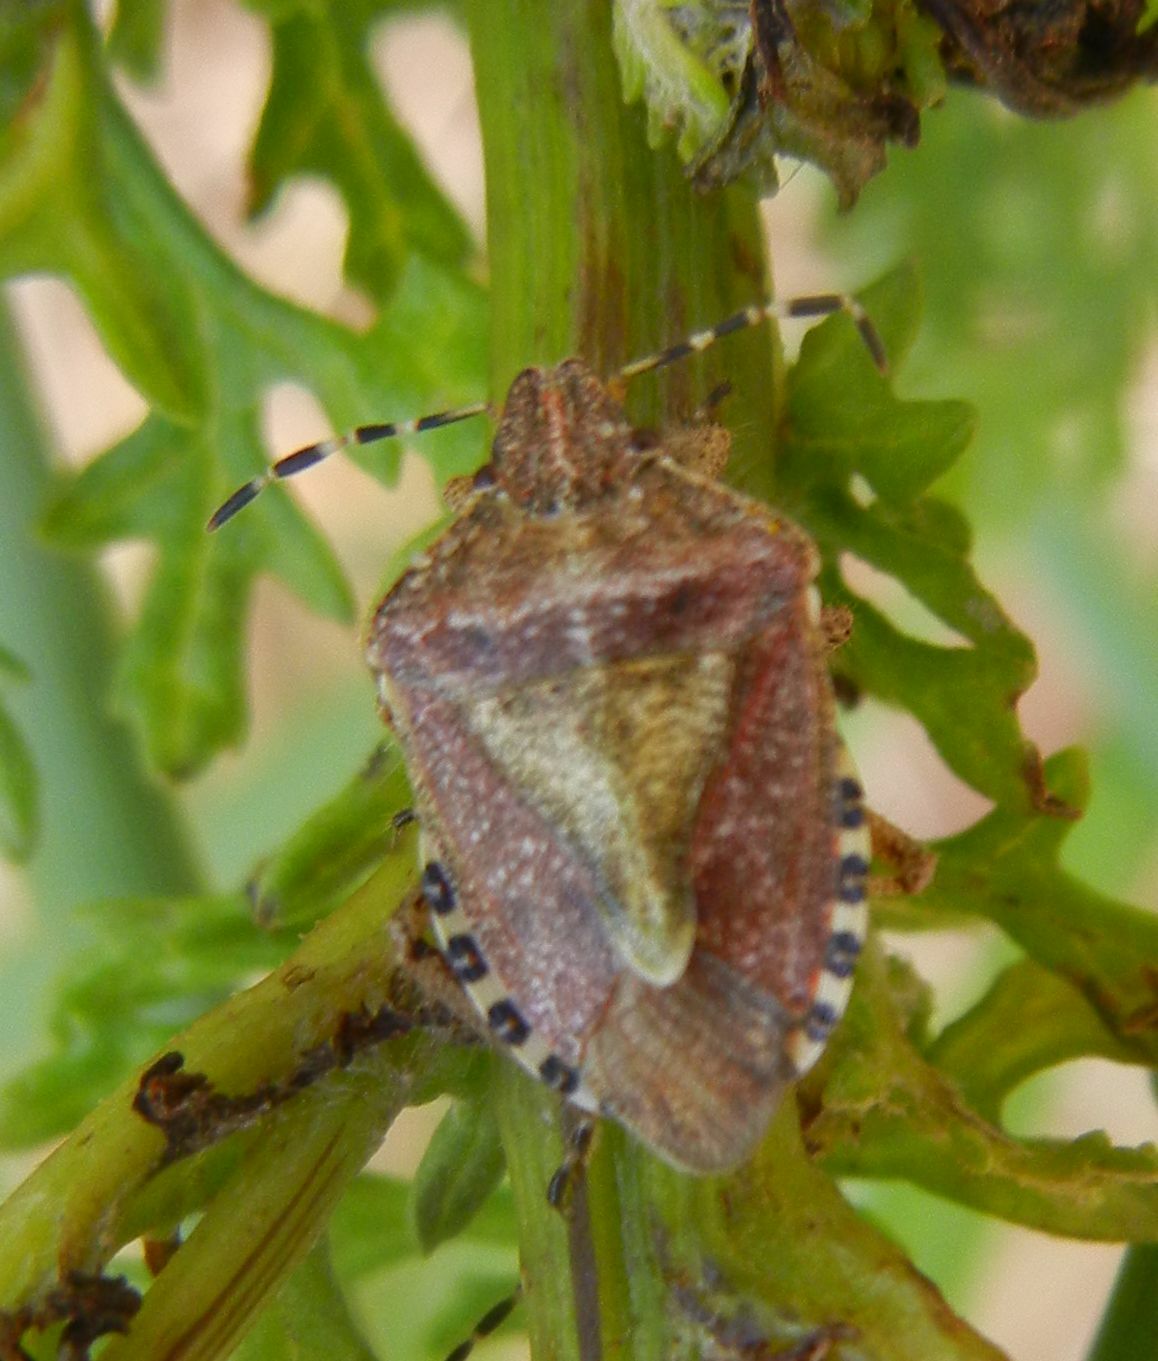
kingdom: Animalia
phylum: Arthropoda
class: Insecta
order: Hemiptera
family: Pentatomidae
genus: Dolycoris
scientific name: Dolycoris baccarum
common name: Sloe bug
